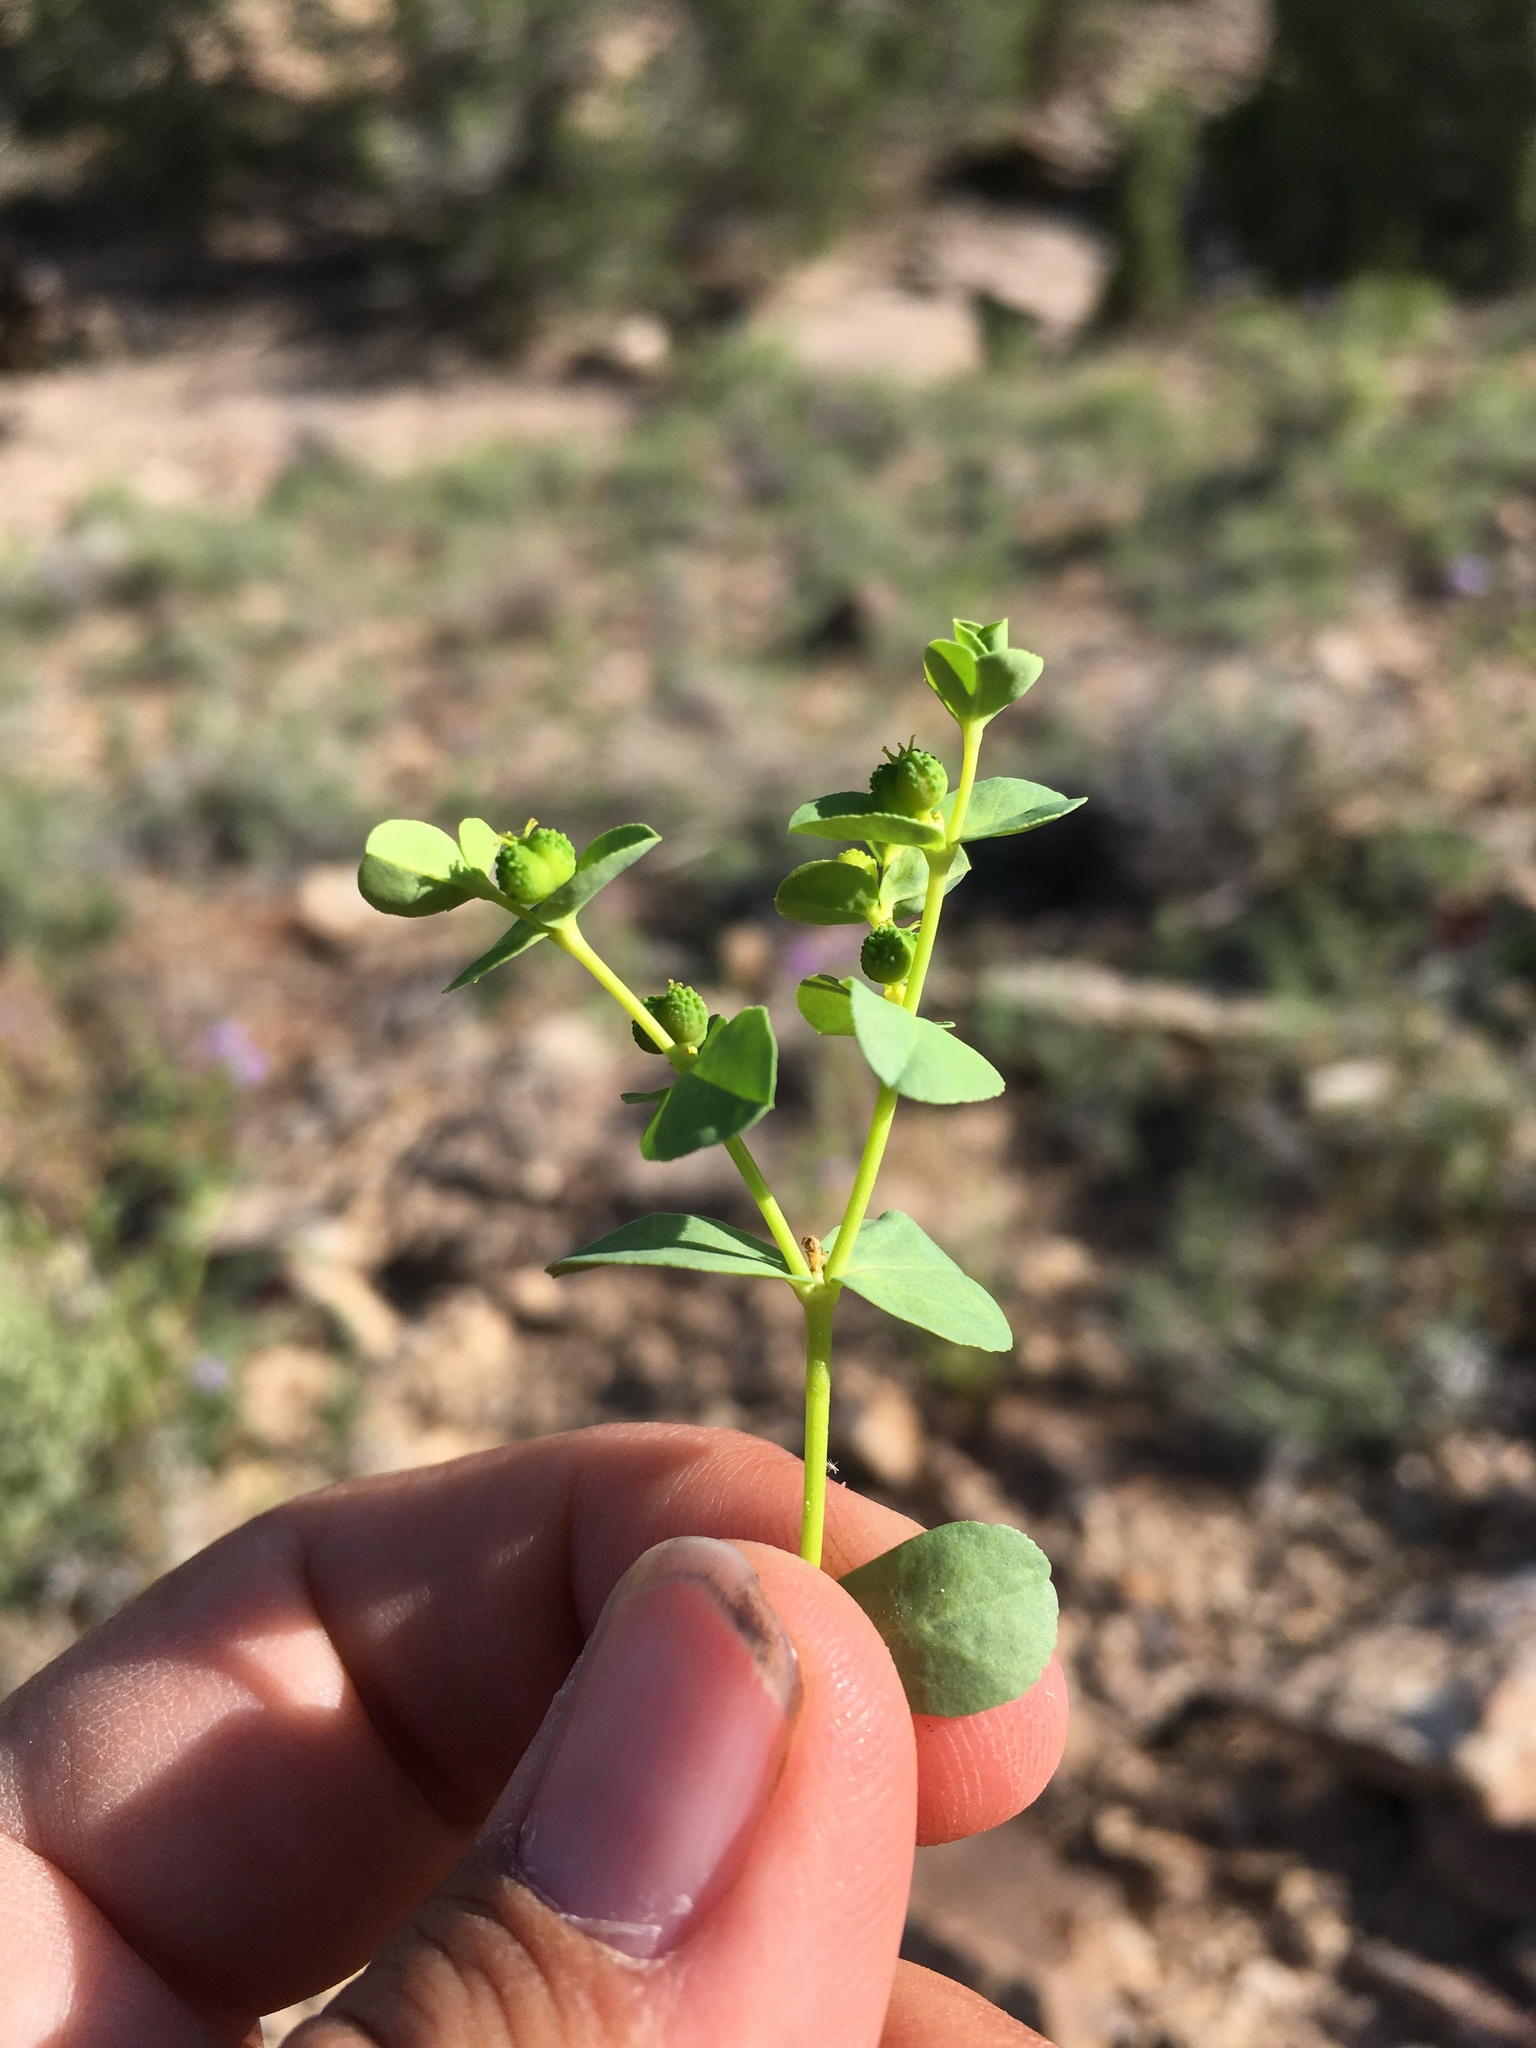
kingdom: Plantae
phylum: Tracheophyta
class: Magnoliopsida
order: Malpighiales
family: Euphorbiaceae
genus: Euphorbia
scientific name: Euphorbia spathulata
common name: Blunt spurge
